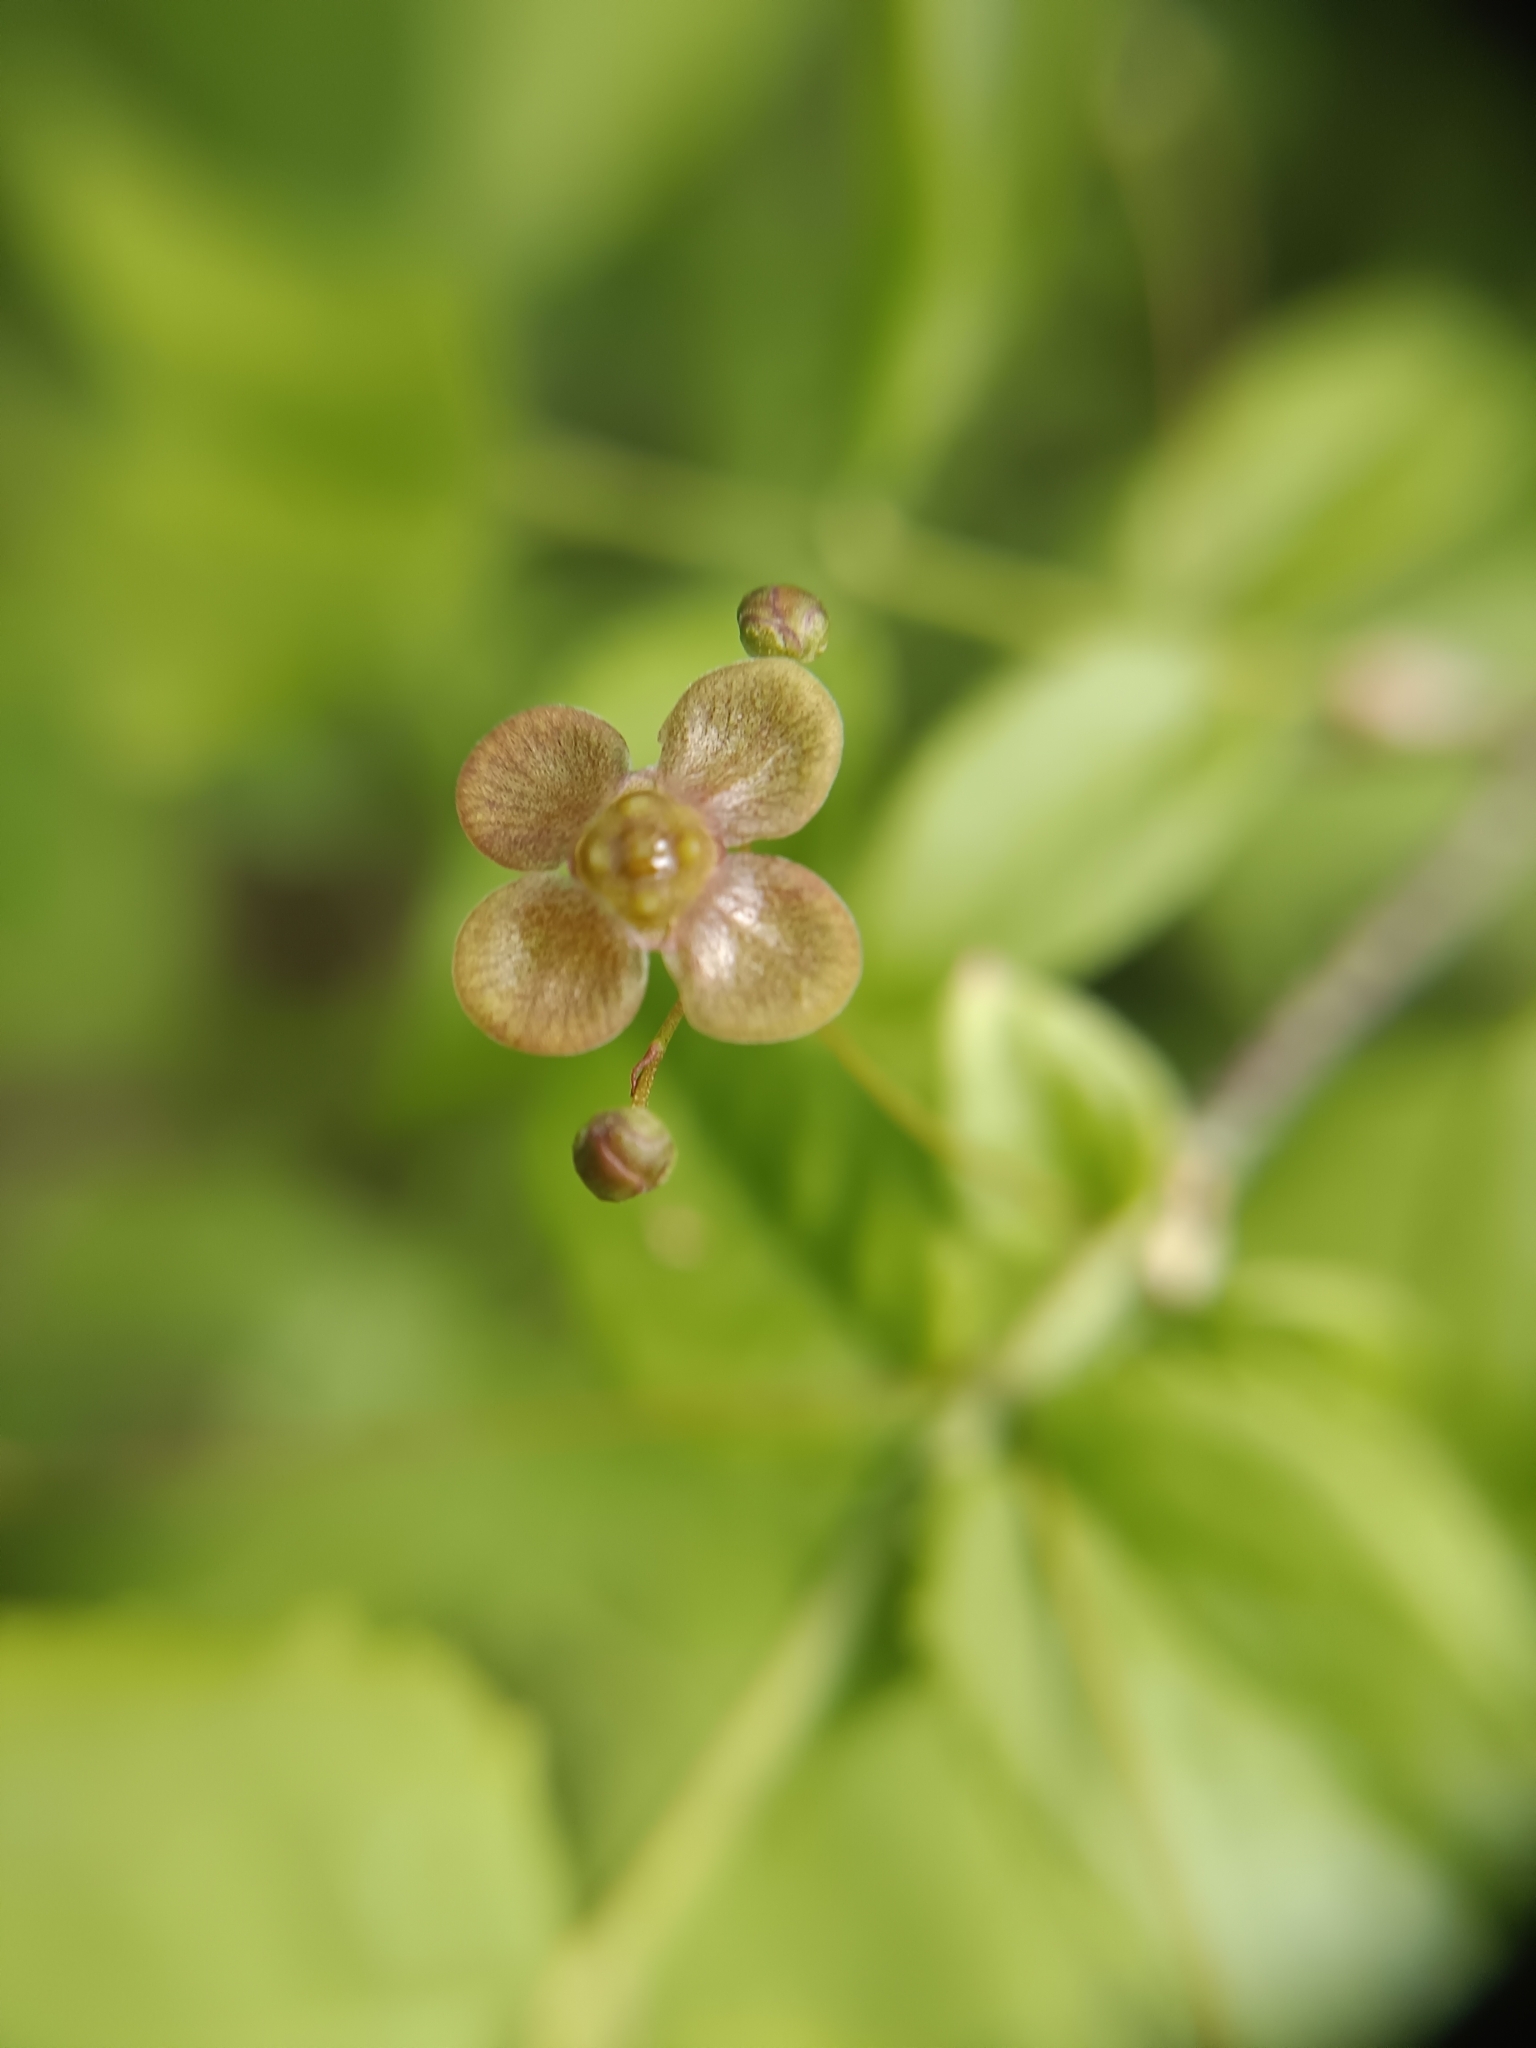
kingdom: Plantae
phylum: Tracheophyta
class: Magnoliopsida
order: Celastrales
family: Celastraceae
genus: Euonymus
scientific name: Euonymus verrucosus
